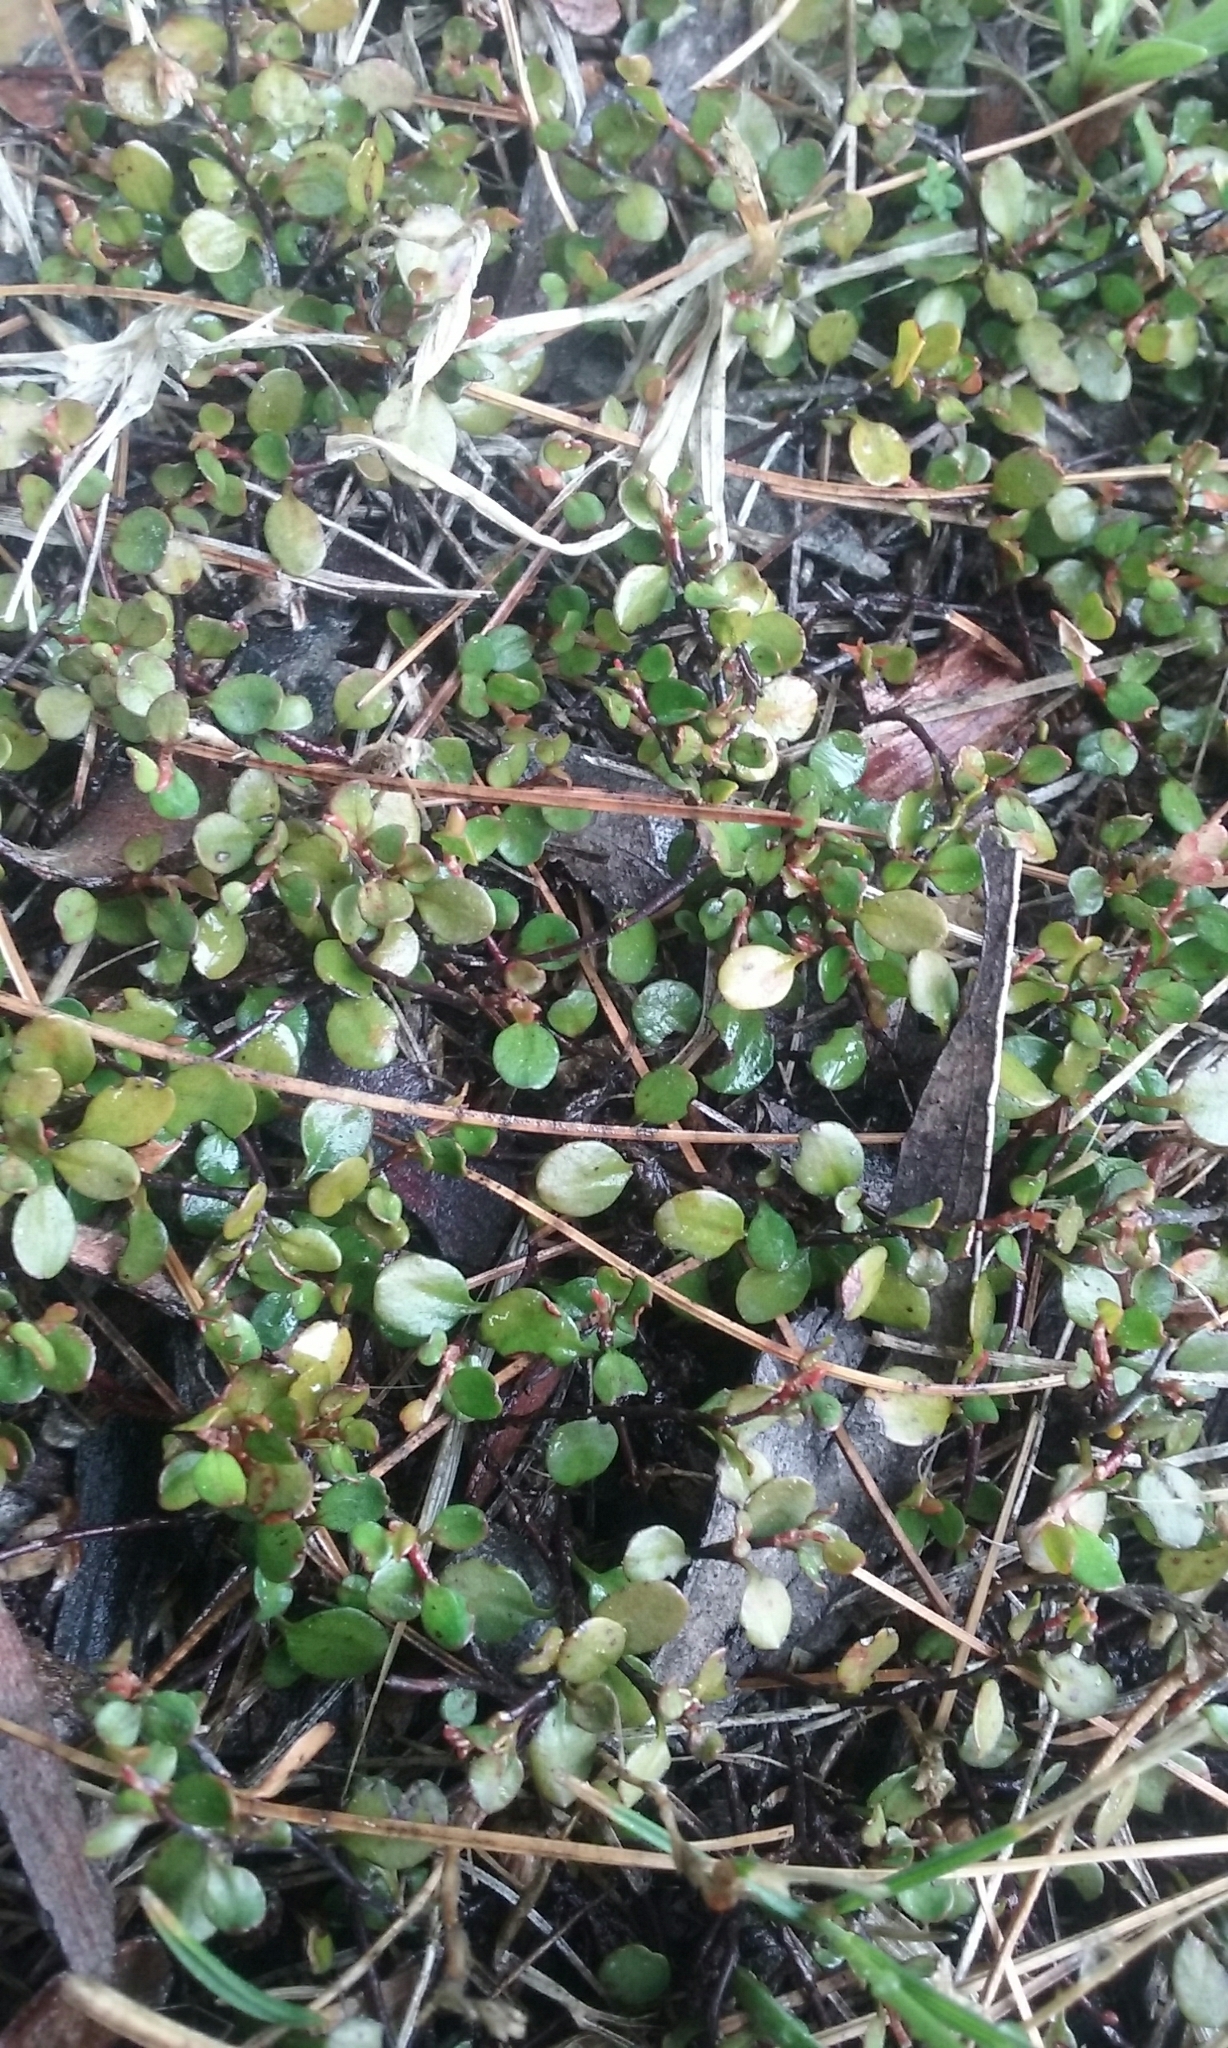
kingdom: Plantae
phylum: Tracheophyta
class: Magnoliopsida
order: Caryophyllales
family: Polygonaceae
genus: Muehlenbeckia
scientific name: Muehlenbeckia axillaris
